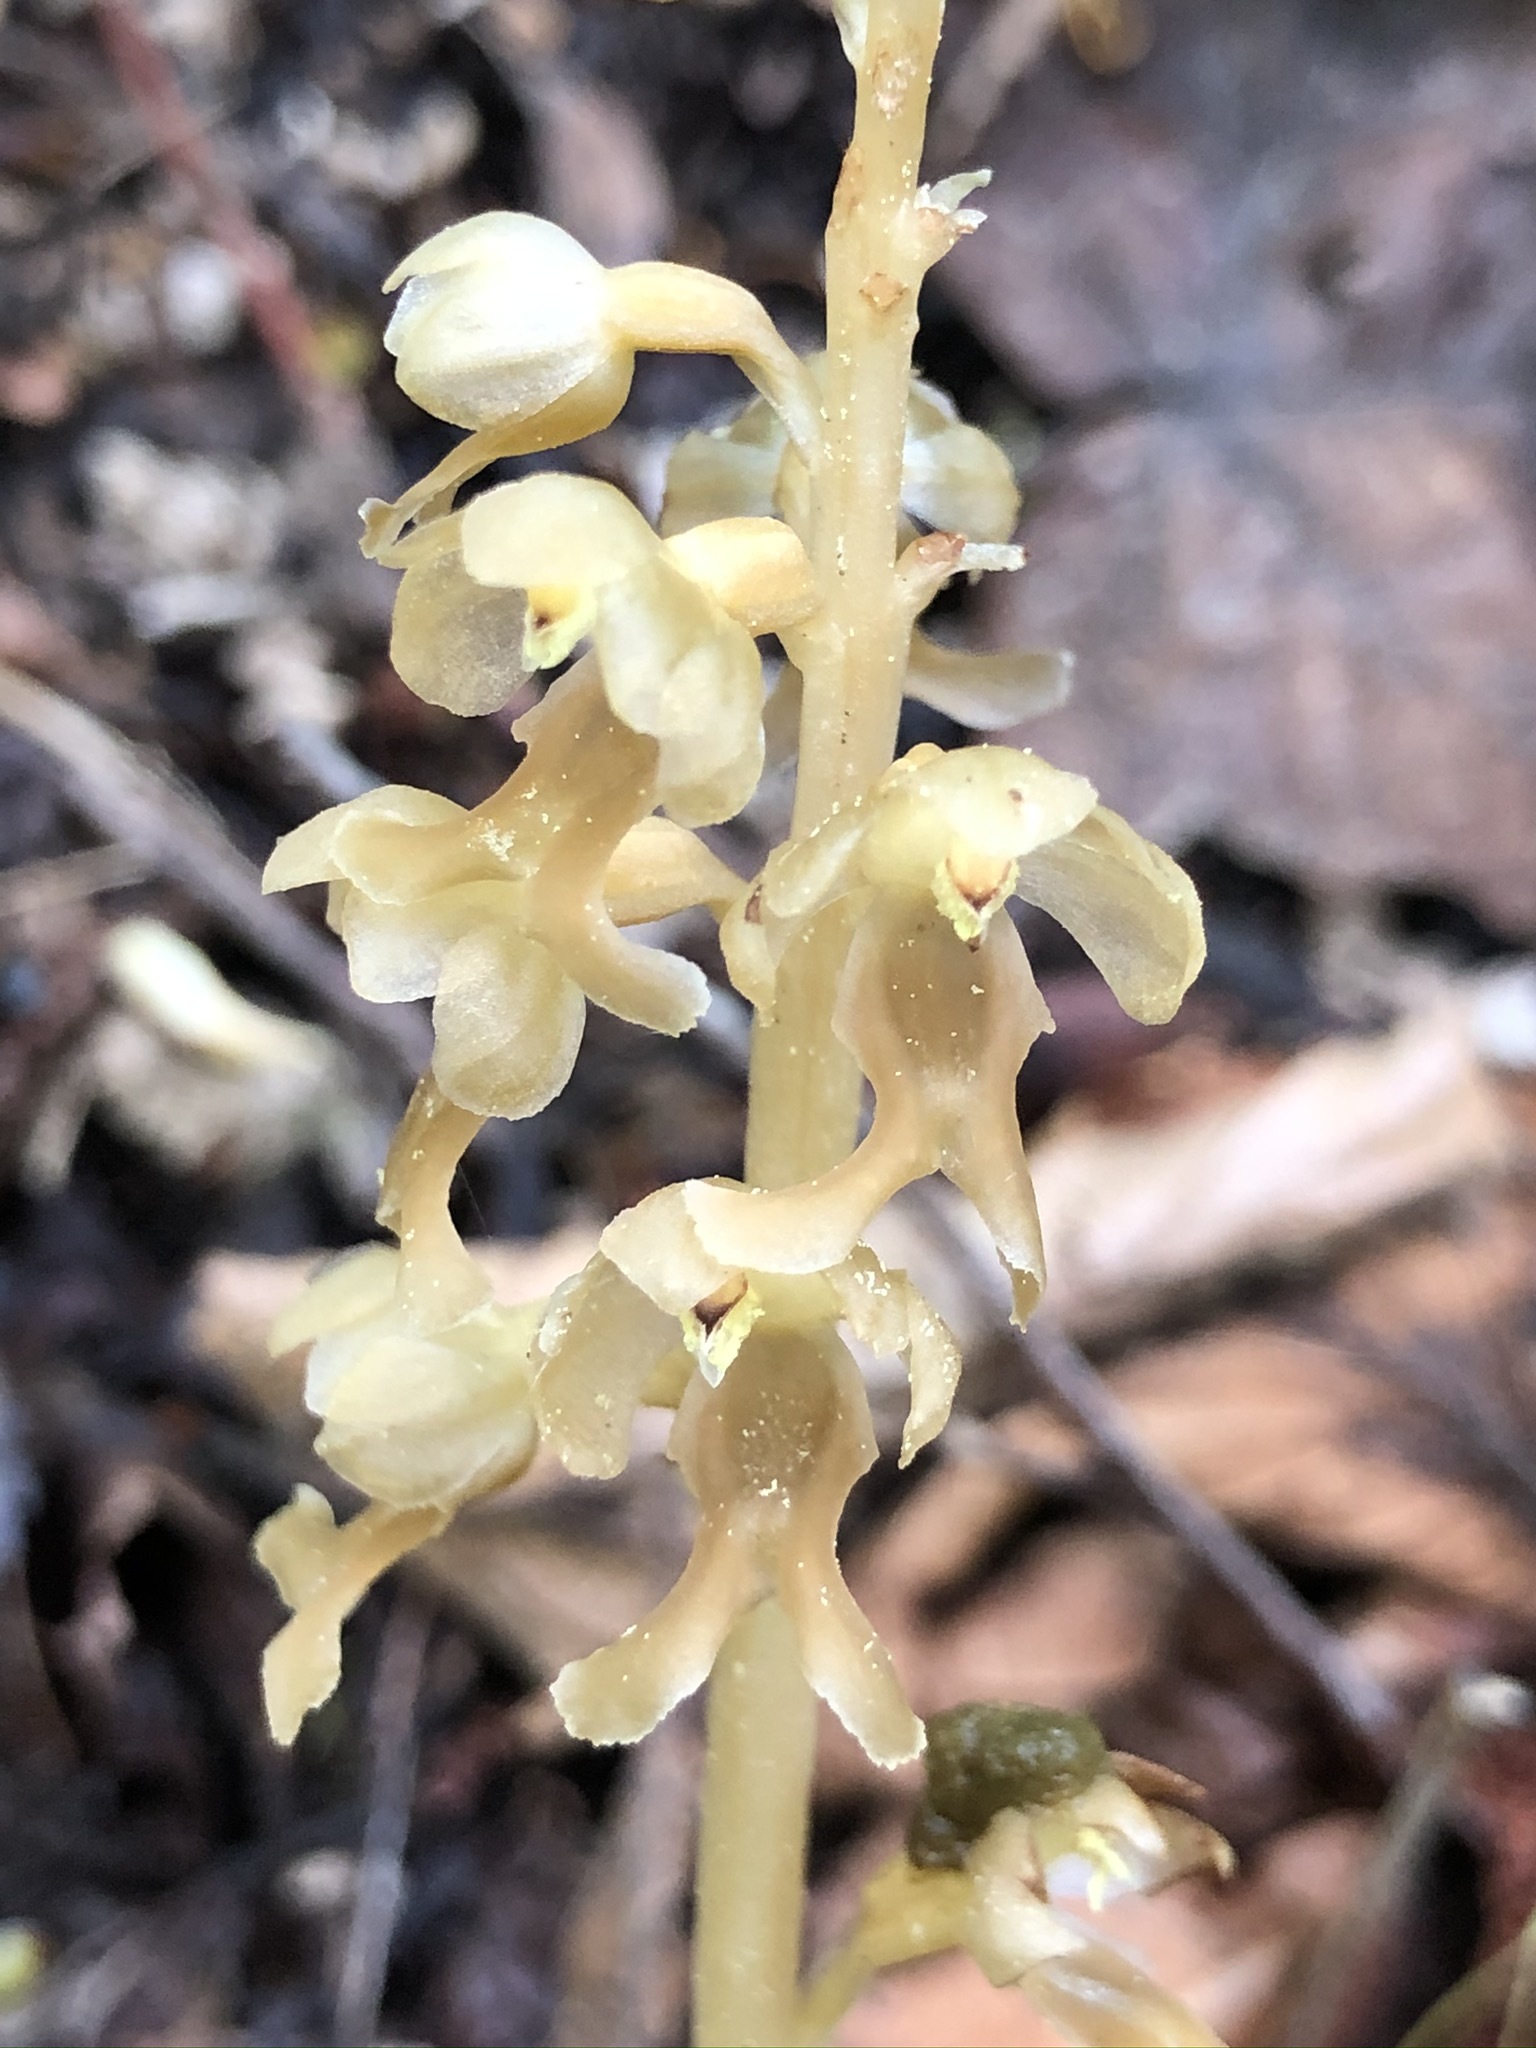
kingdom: Plantae
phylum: Tracheophyta
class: Liliopsida
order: Asparagales
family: Orchidaceae
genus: Neottia
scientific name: Neottia nidus-avis
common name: Bird's-nest orchid
